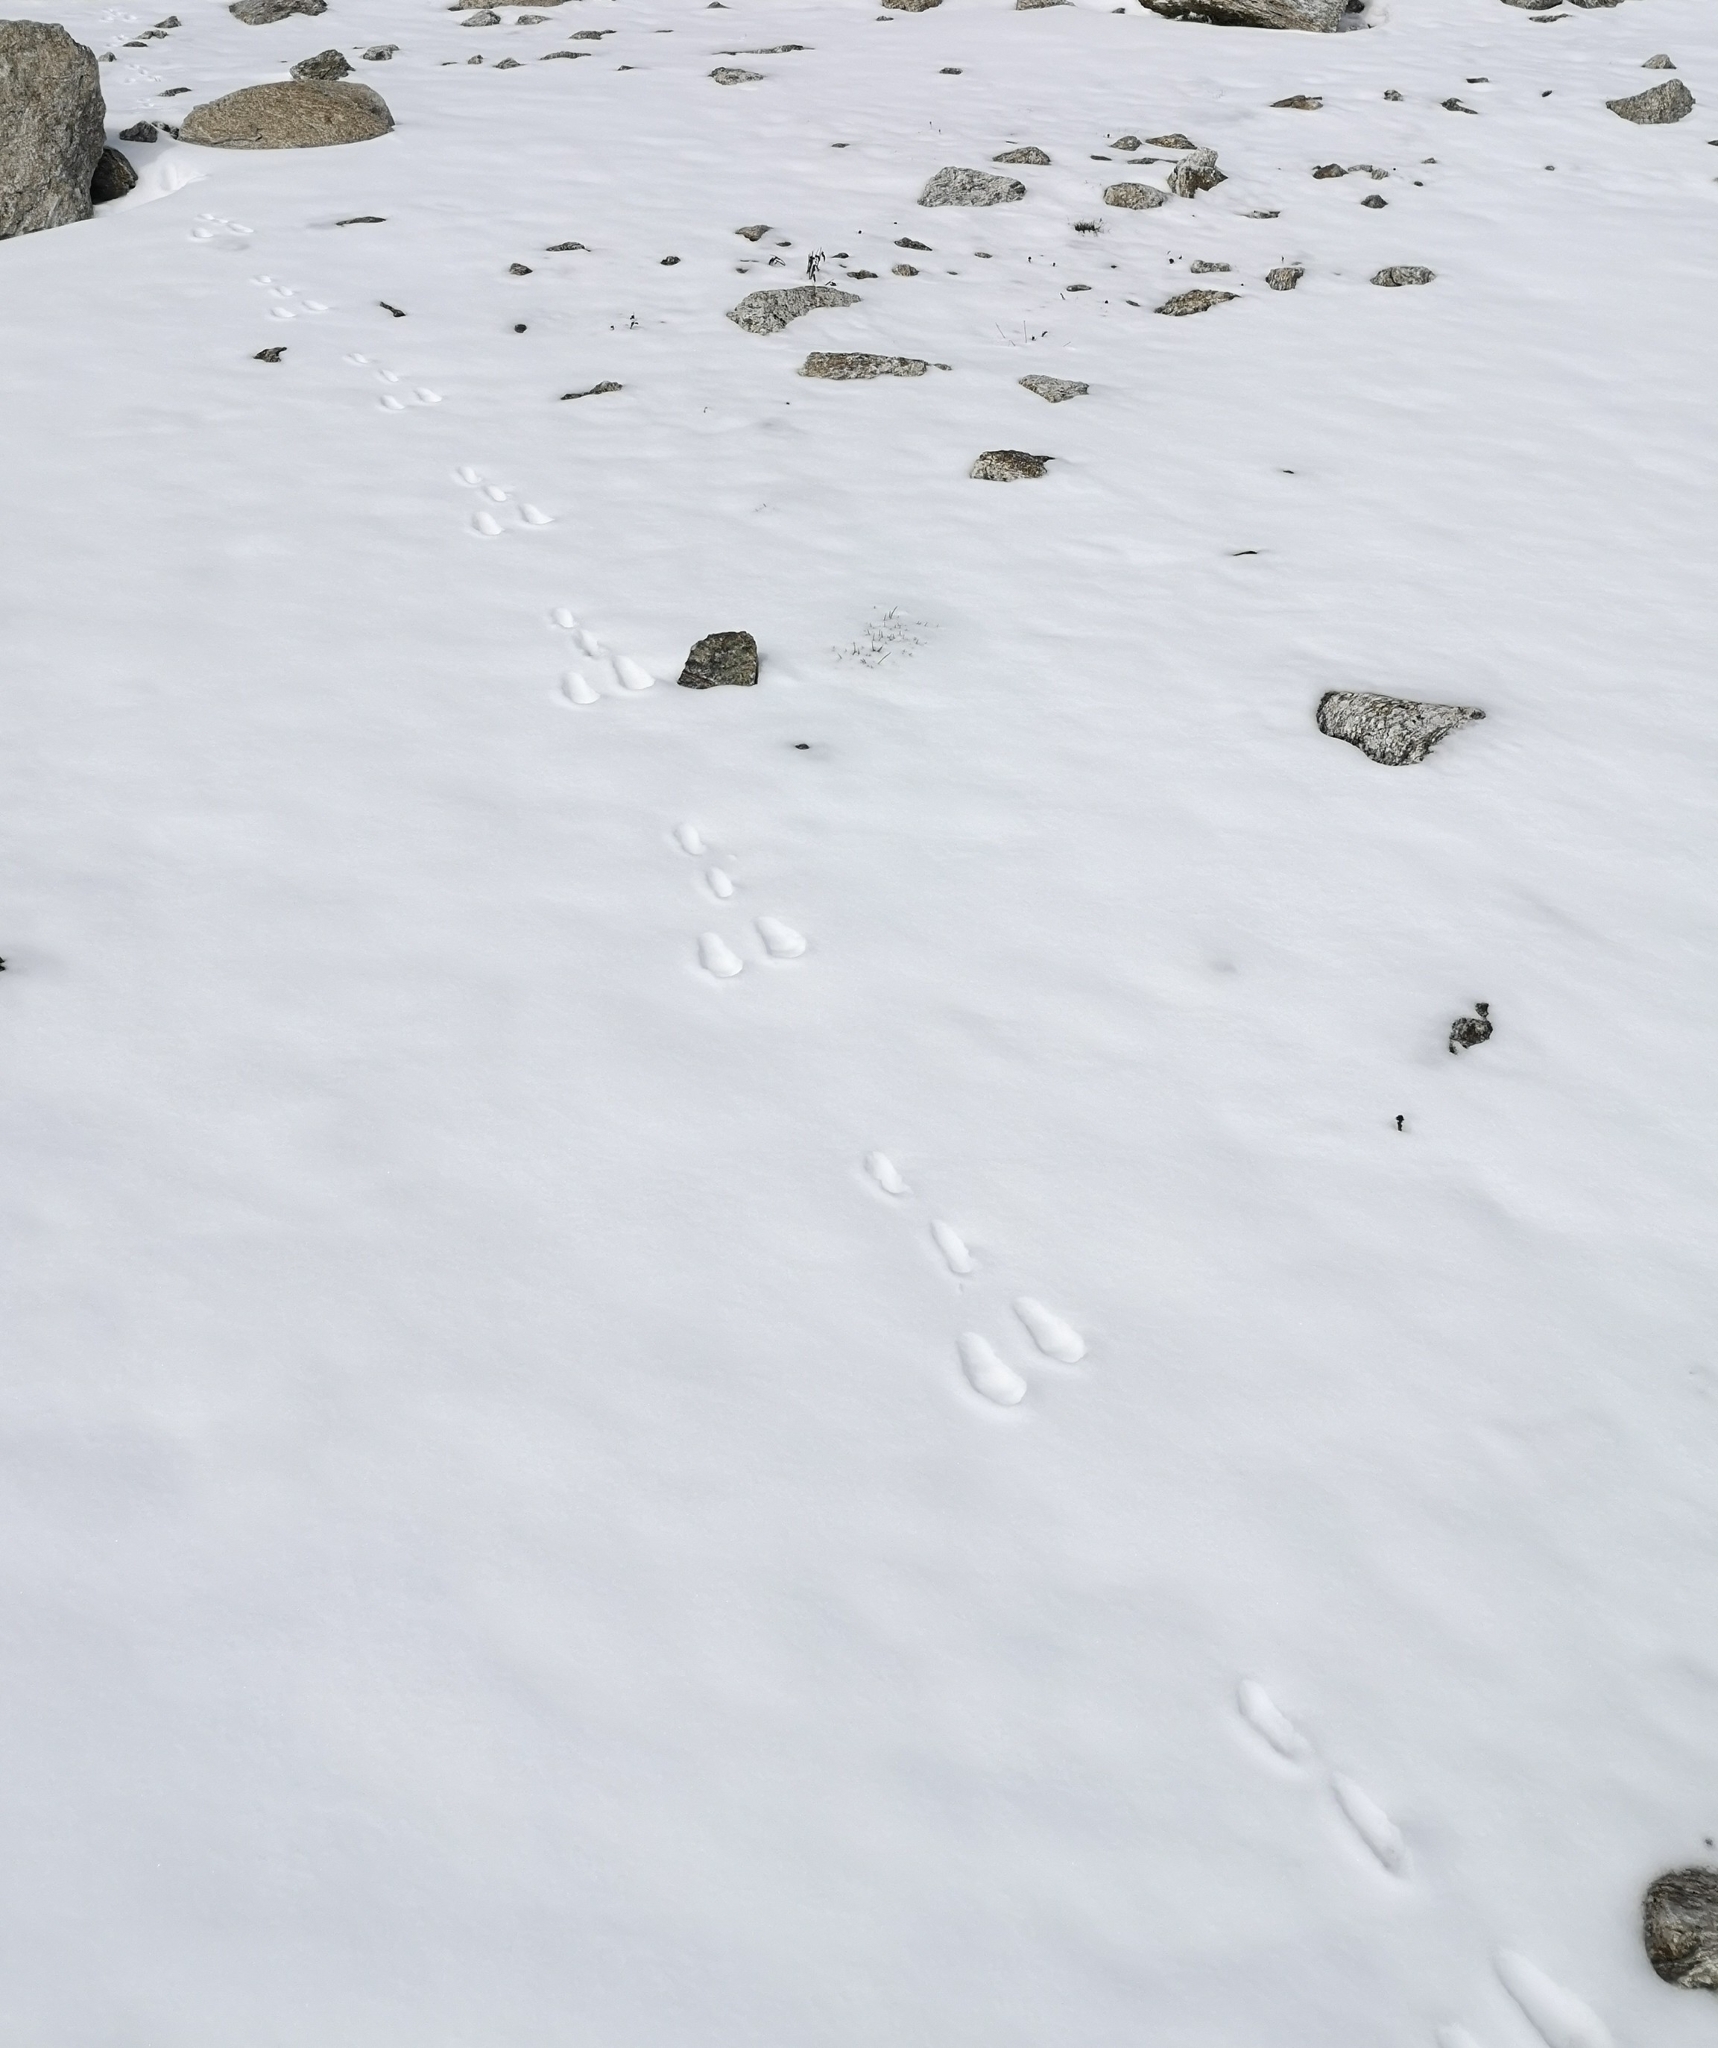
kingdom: Animalia
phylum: Chordata
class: Mammalia
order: Lagomorpha
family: Leporidae
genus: Lepus
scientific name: Lepus timidus
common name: Mountain hare
